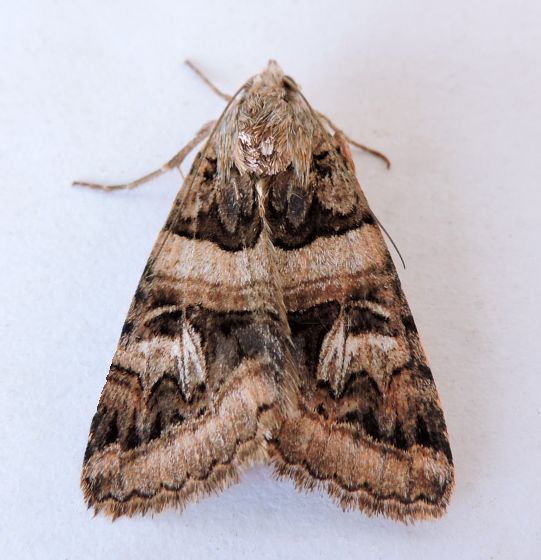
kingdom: Animalia
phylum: Arthropoda
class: Insecta
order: Lepidoptera
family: Erebidae
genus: Drasteria
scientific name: Drasteria walshi
